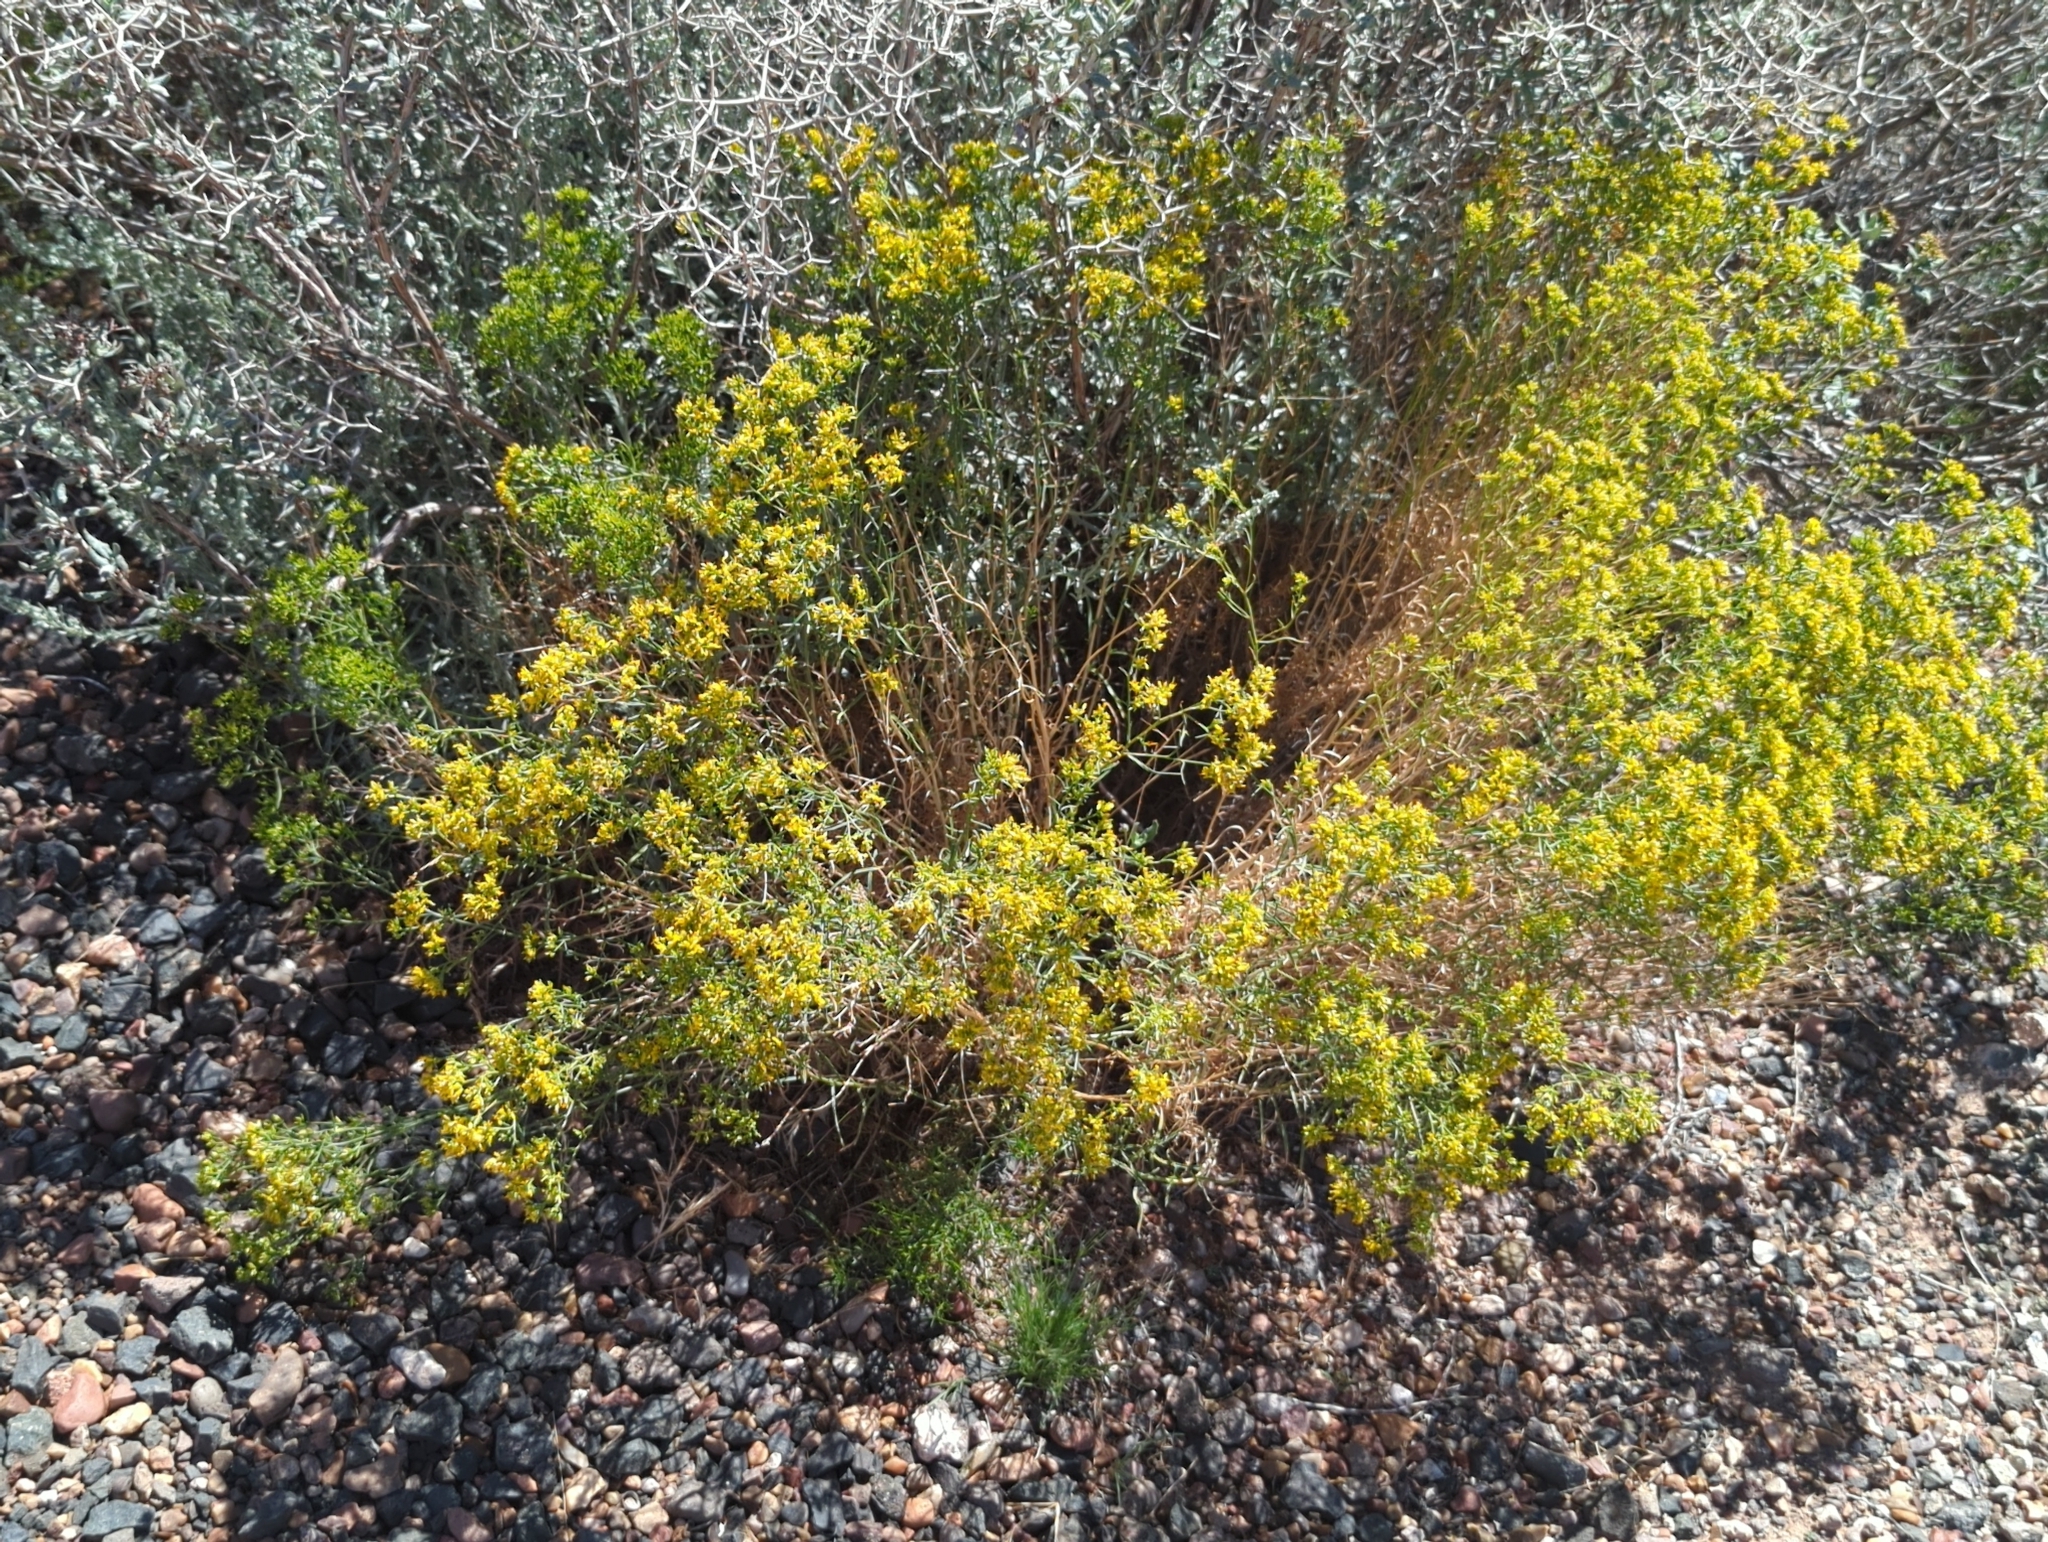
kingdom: Plantae
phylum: Tracheophyta
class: Magnoliopsida
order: Asterales
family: Asteraceae
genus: Gutierrezia
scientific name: Gutierrezia microcephala
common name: Thread snakeweed
